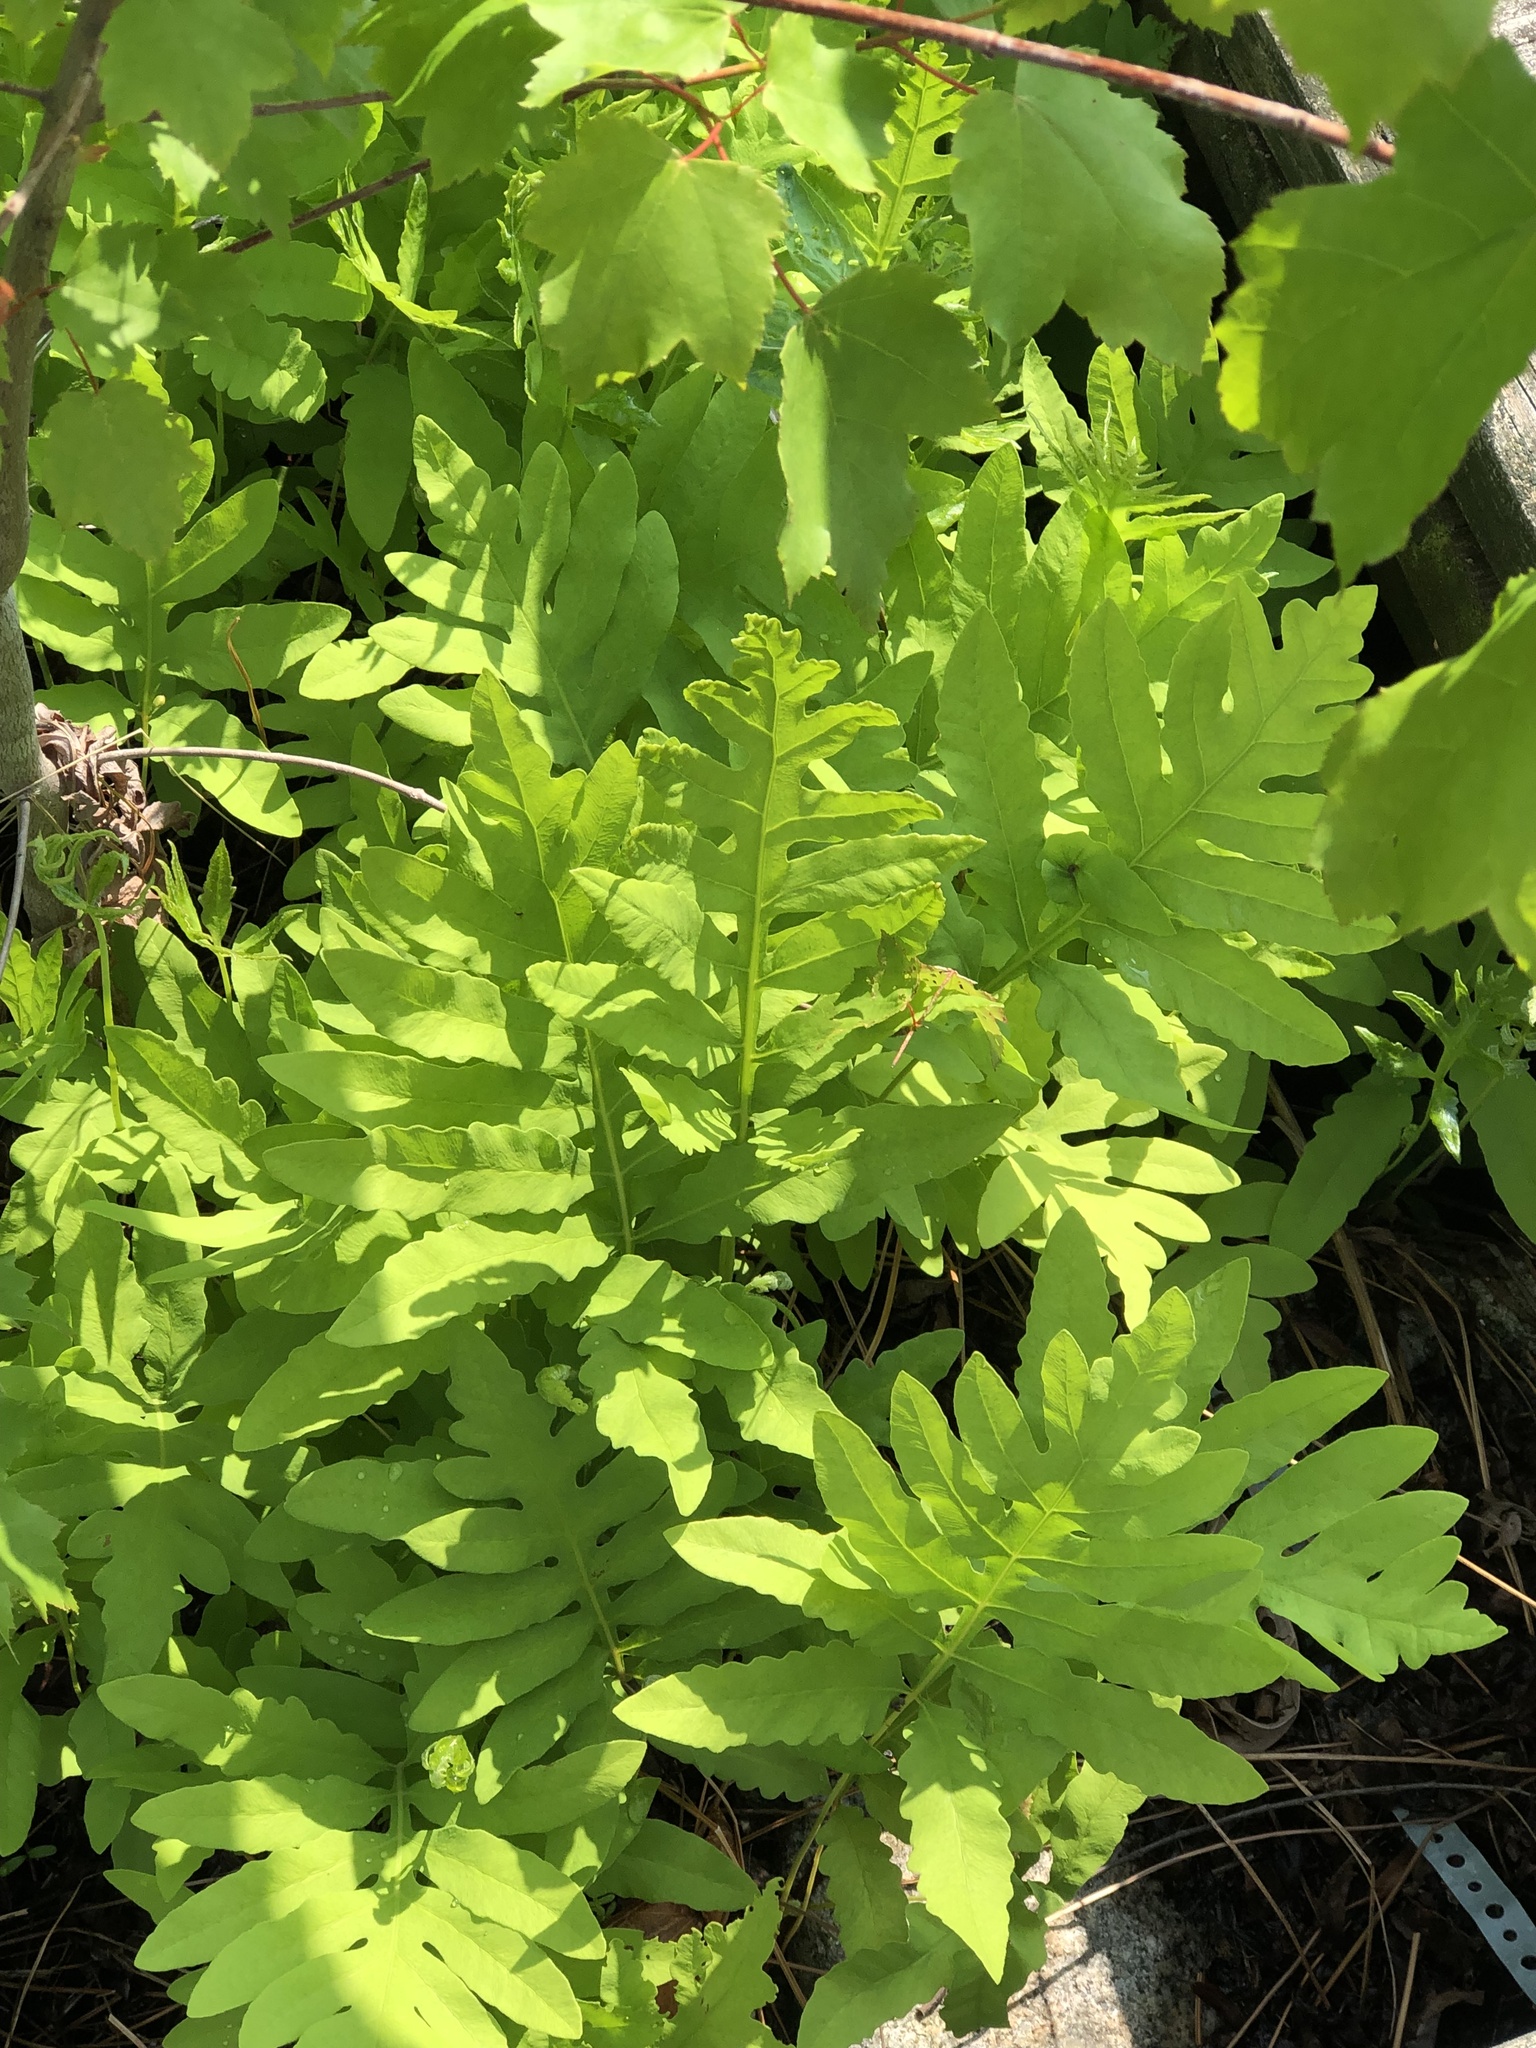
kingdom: Plantae
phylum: Tracheophyta
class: Polypodiopsida
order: Polypodiales
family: Onocleaceae
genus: Onoclea
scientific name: Onoclea sensibilis
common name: Sensitive fern
